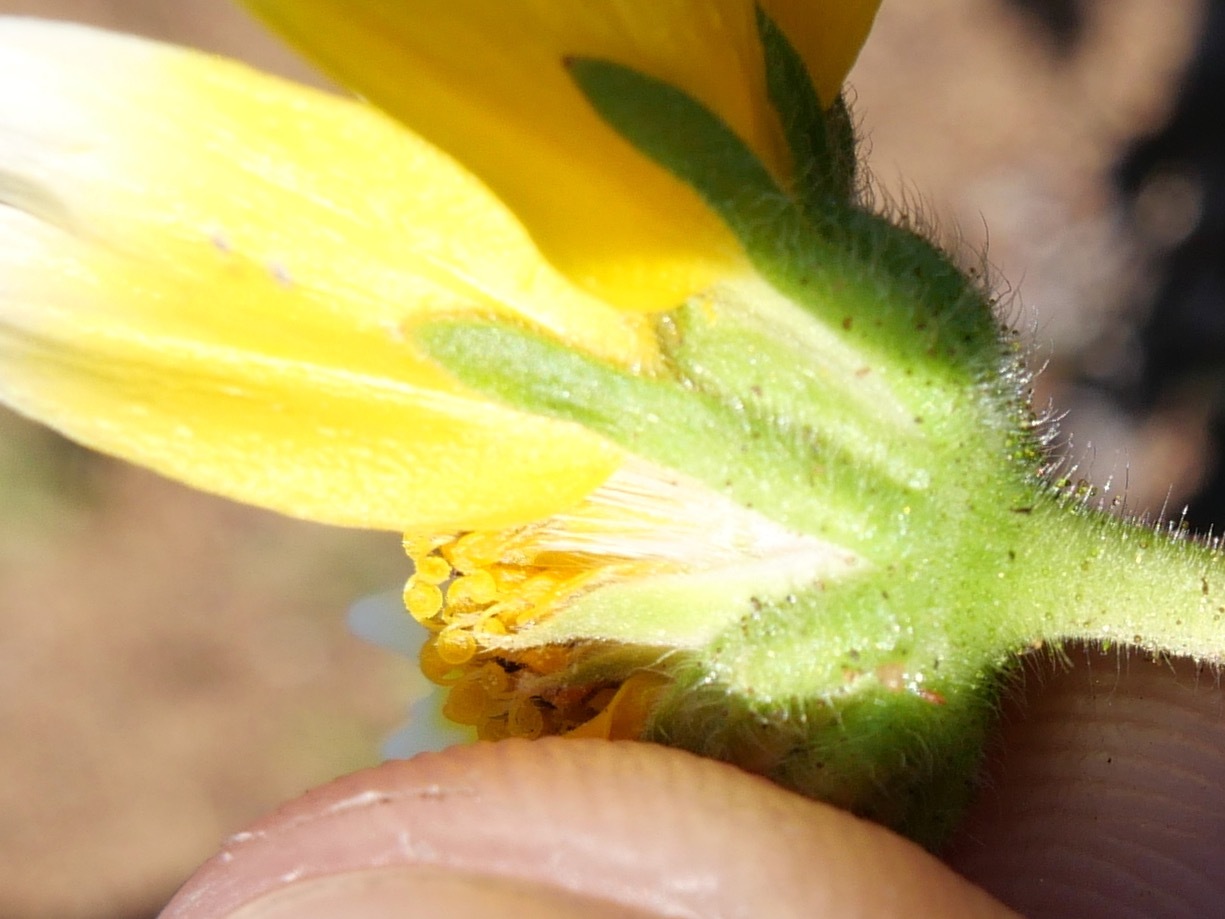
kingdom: Plantae
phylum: Tracheophyta
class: Magnoliopsida
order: Asterales
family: Asteraceae
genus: Layia
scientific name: Layia platyglossa
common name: Tidy-tips
